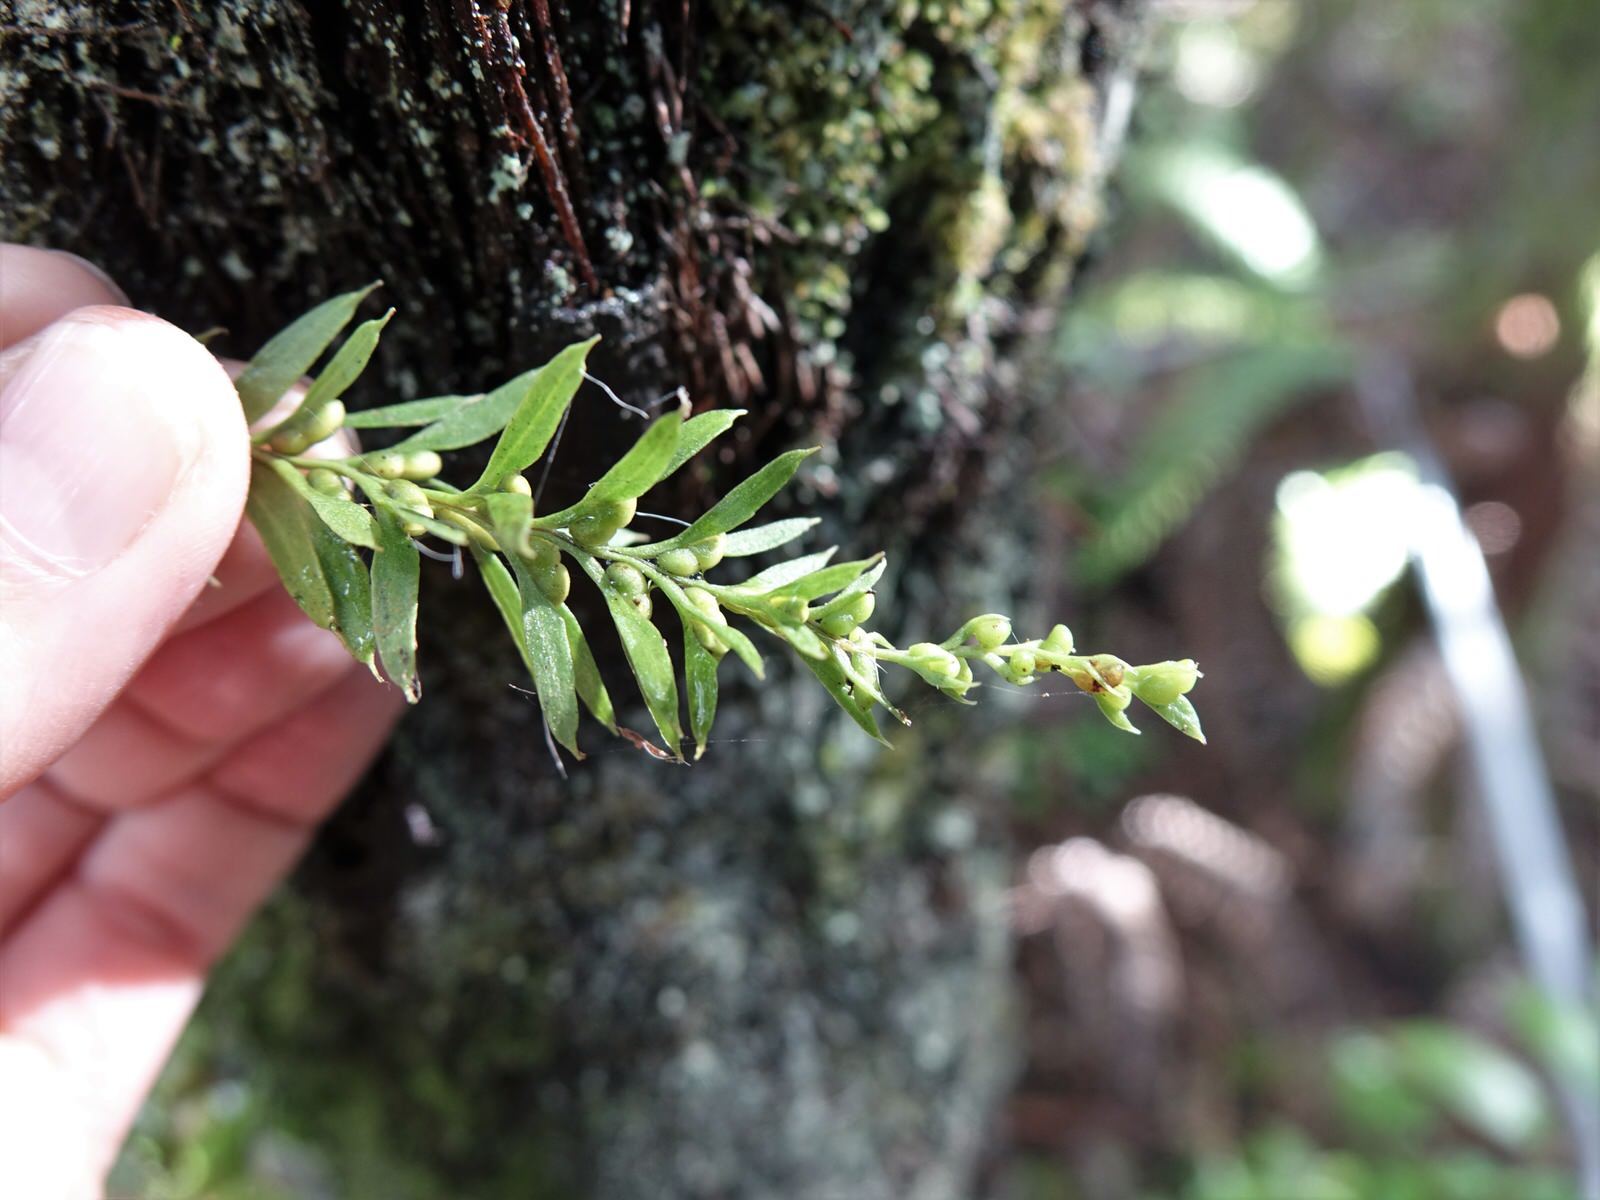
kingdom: Plantae
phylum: Tracheophyta
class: Polypodiopsida
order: Psilotales
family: Psilotaceae
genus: Tmesipteris
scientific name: Tmesipteris elongata
